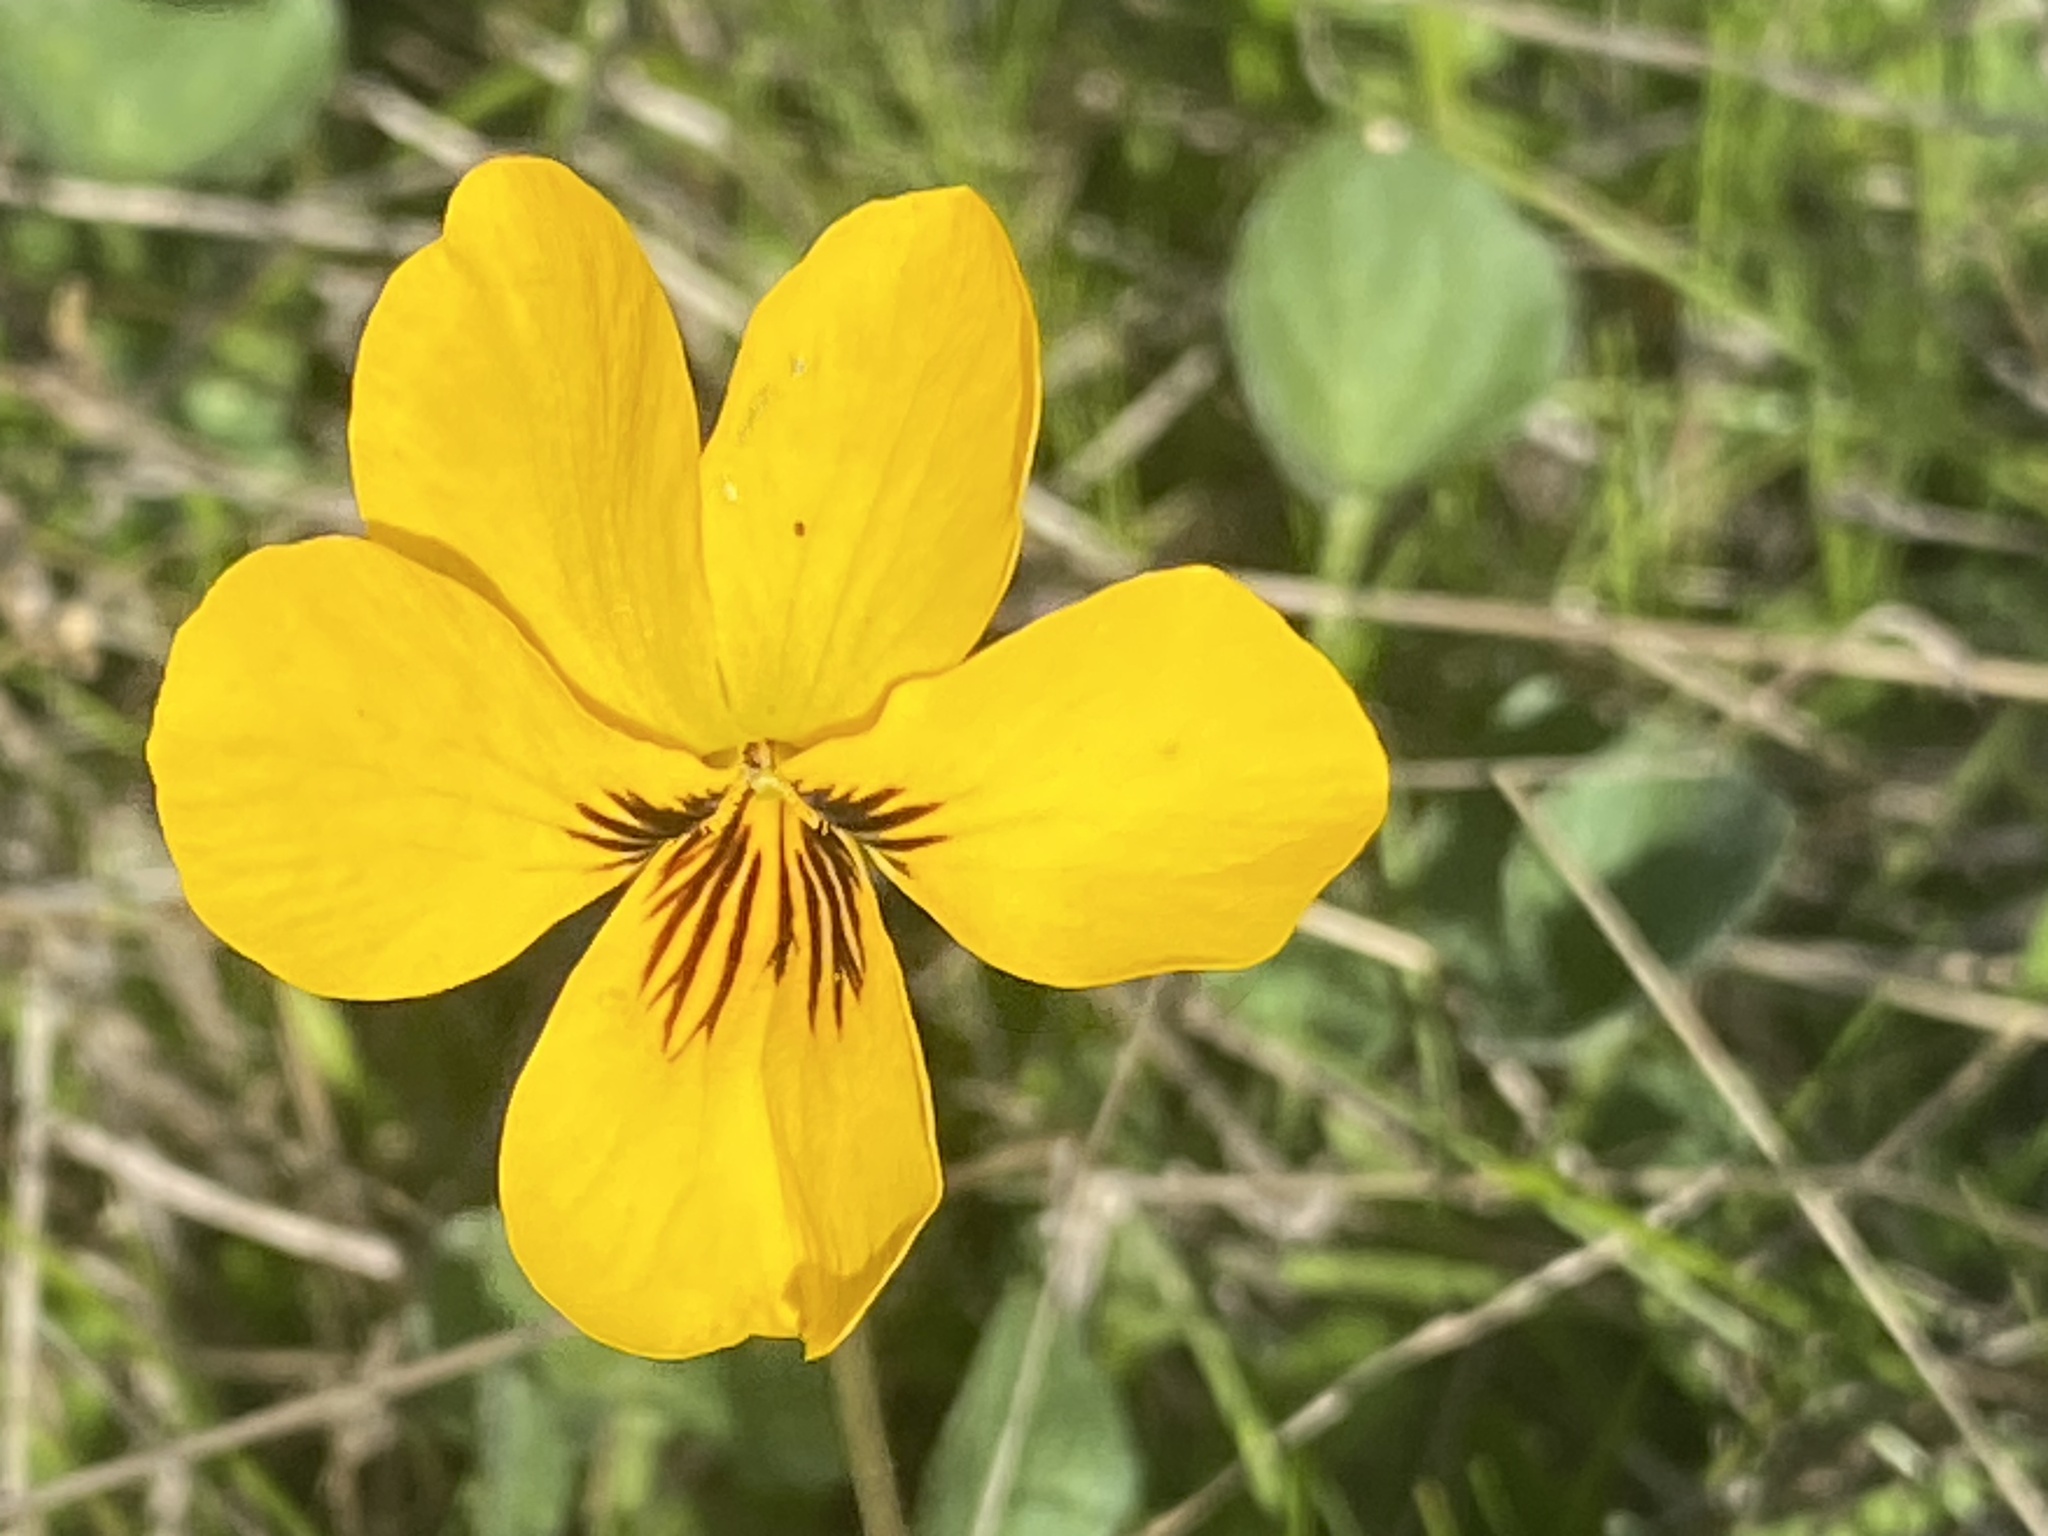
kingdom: Plantae
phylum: Tracheophyta
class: Magnoliopsida
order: Malpighiales
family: Violaceae
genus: Viola
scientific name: Viola pedunculata
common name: California golden violet
